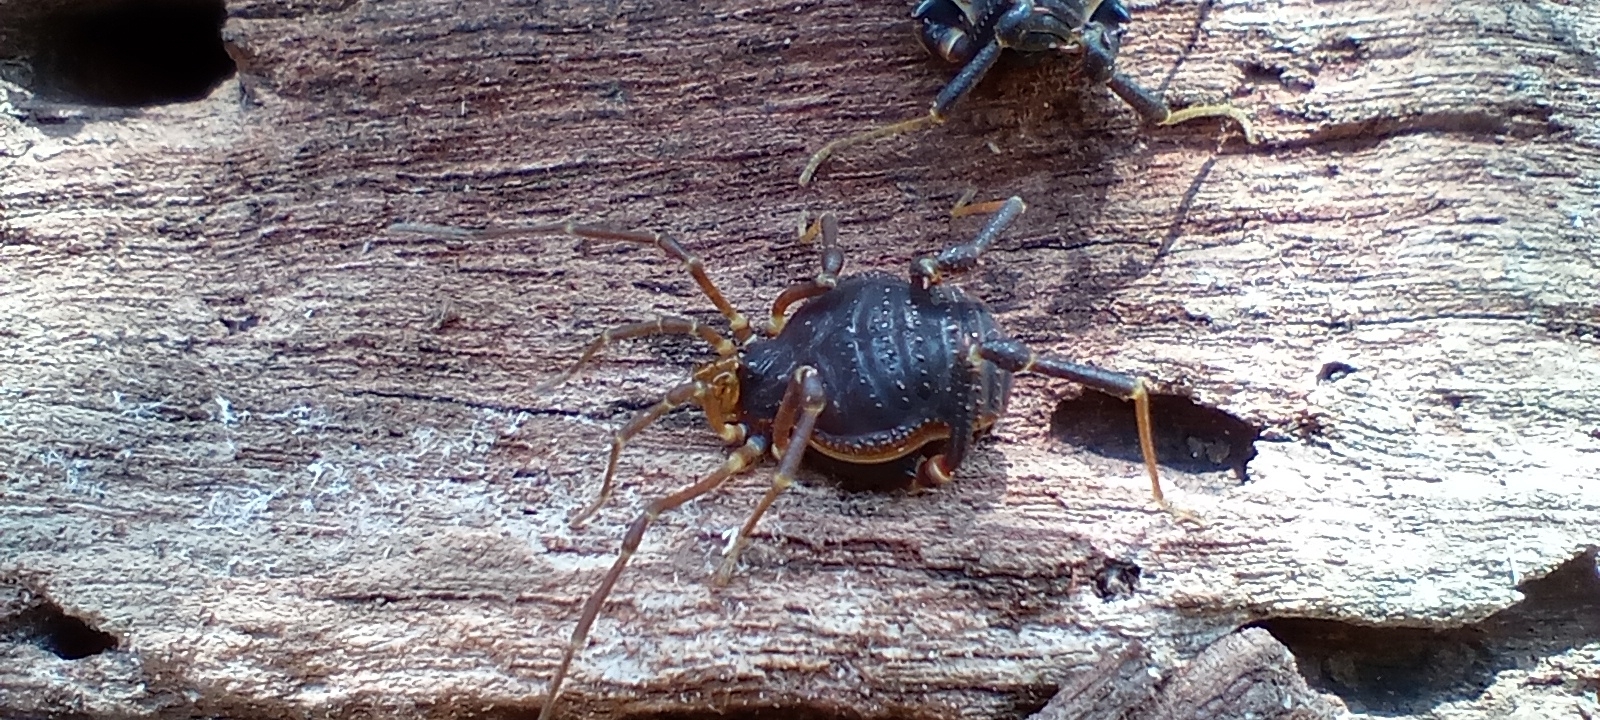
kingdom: Animalia
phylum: Arthropoda
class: Arachnida
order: Opiliones
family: Gonyleptidae
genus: Acanthopachylus
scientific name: Acanthopachylus robustus
